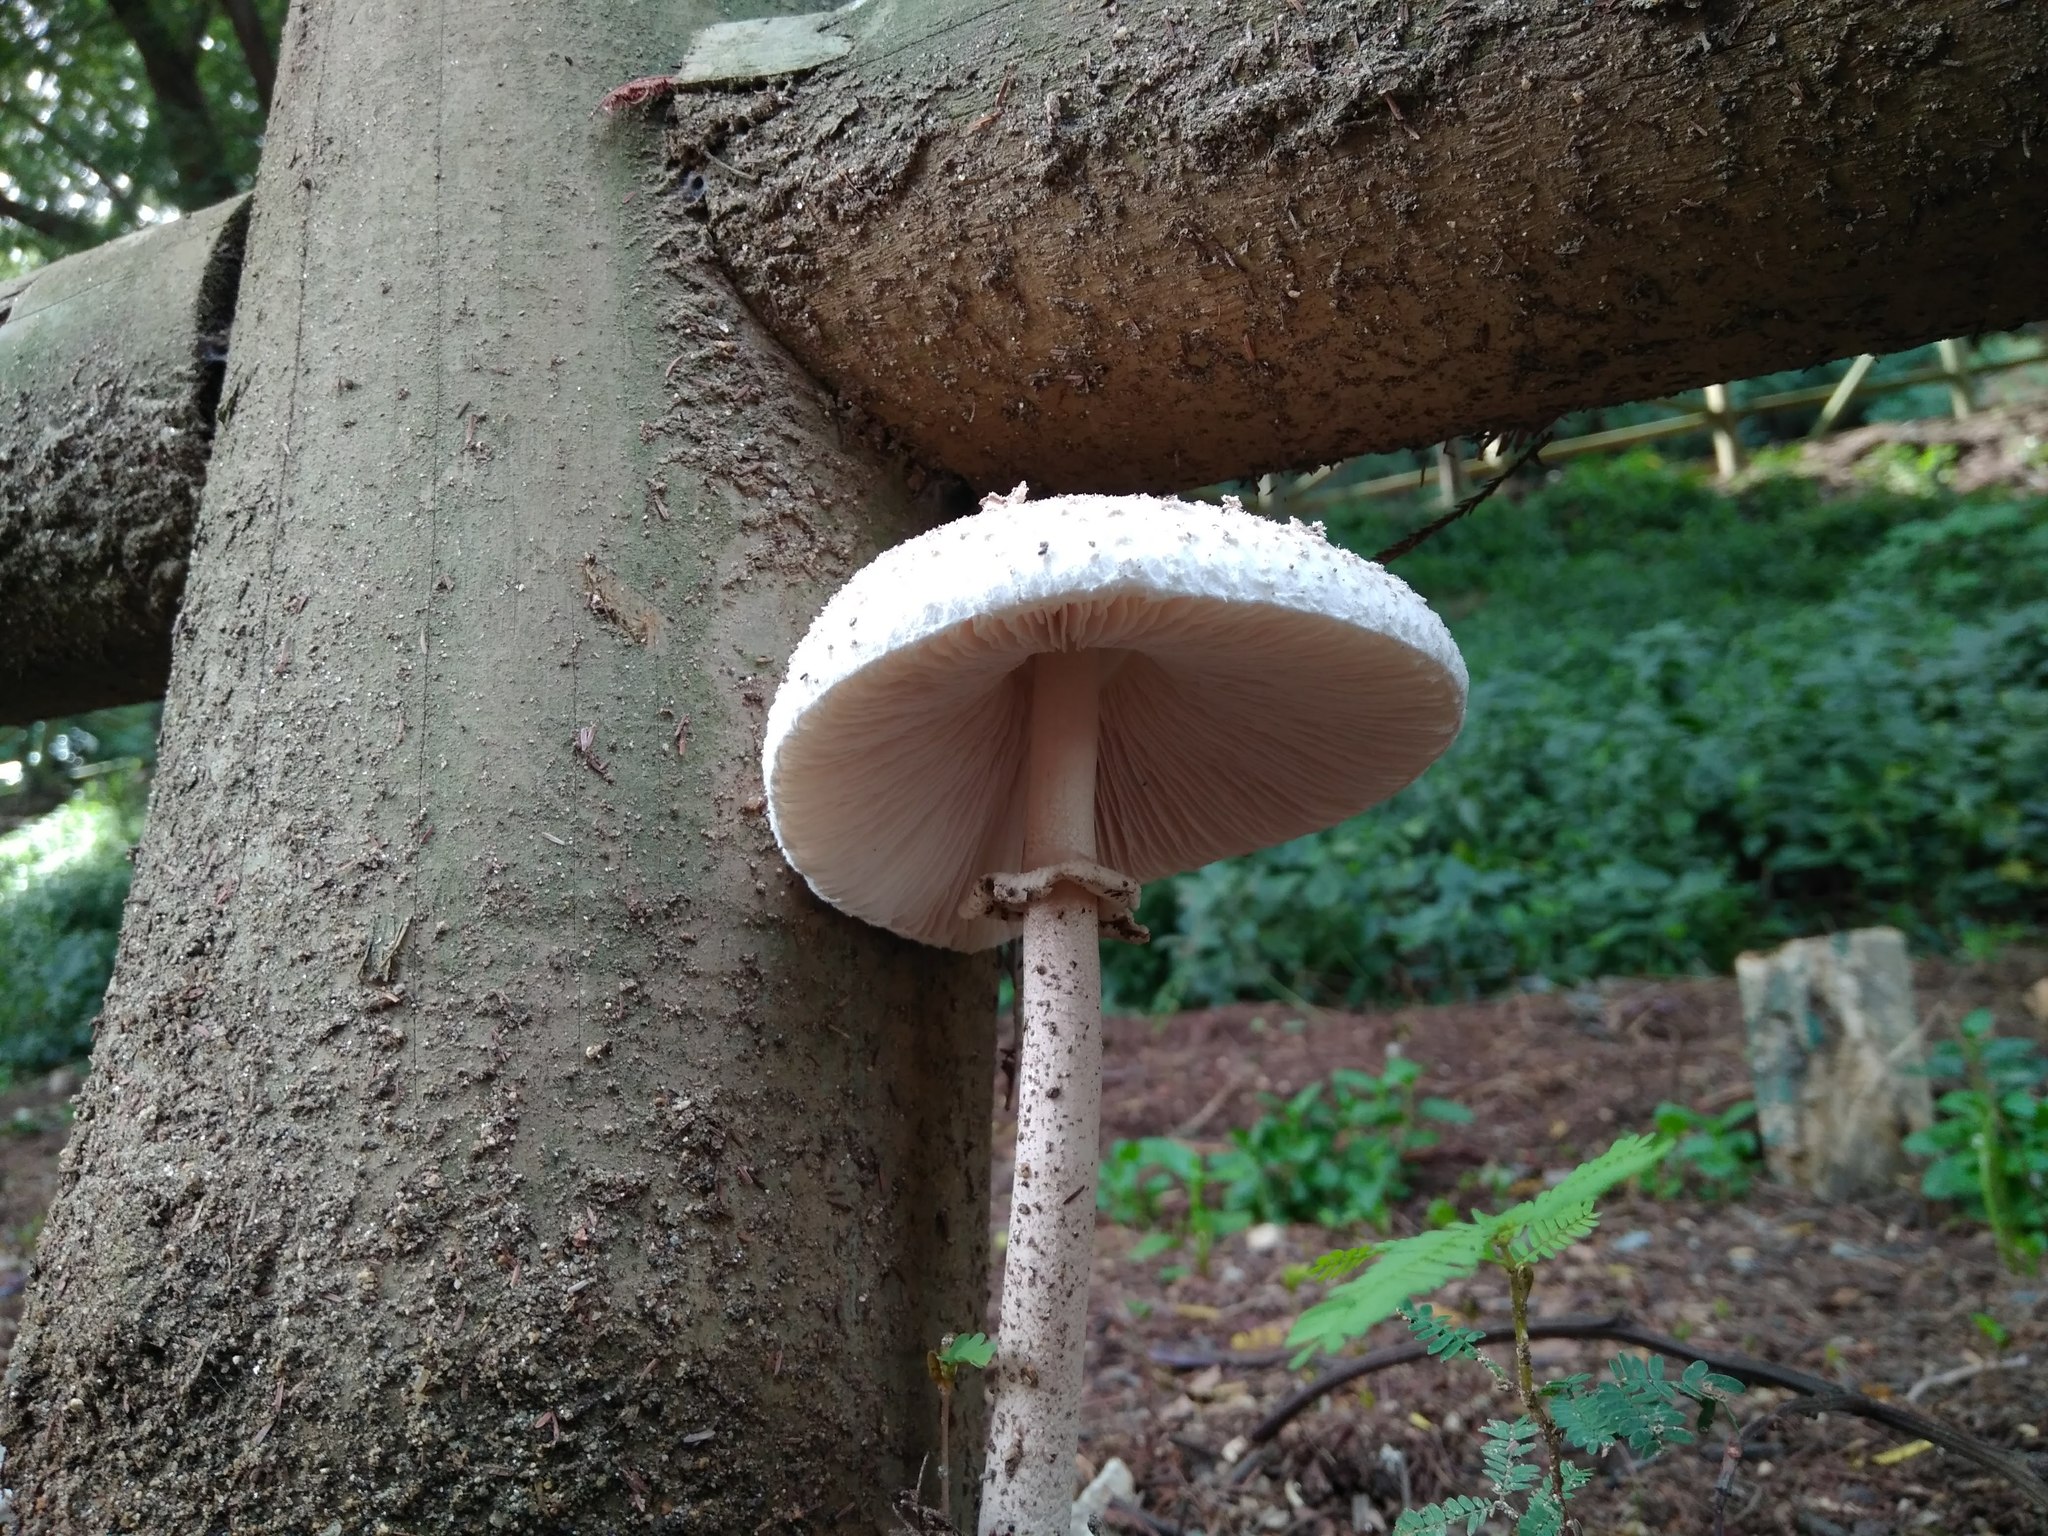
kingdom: Fungi
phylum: Basidiomycota
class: Agaricomycetes
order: Agaricales
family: Agaricaceae
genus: Macrolepiota
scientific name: Macrolepiota bonaerensis
